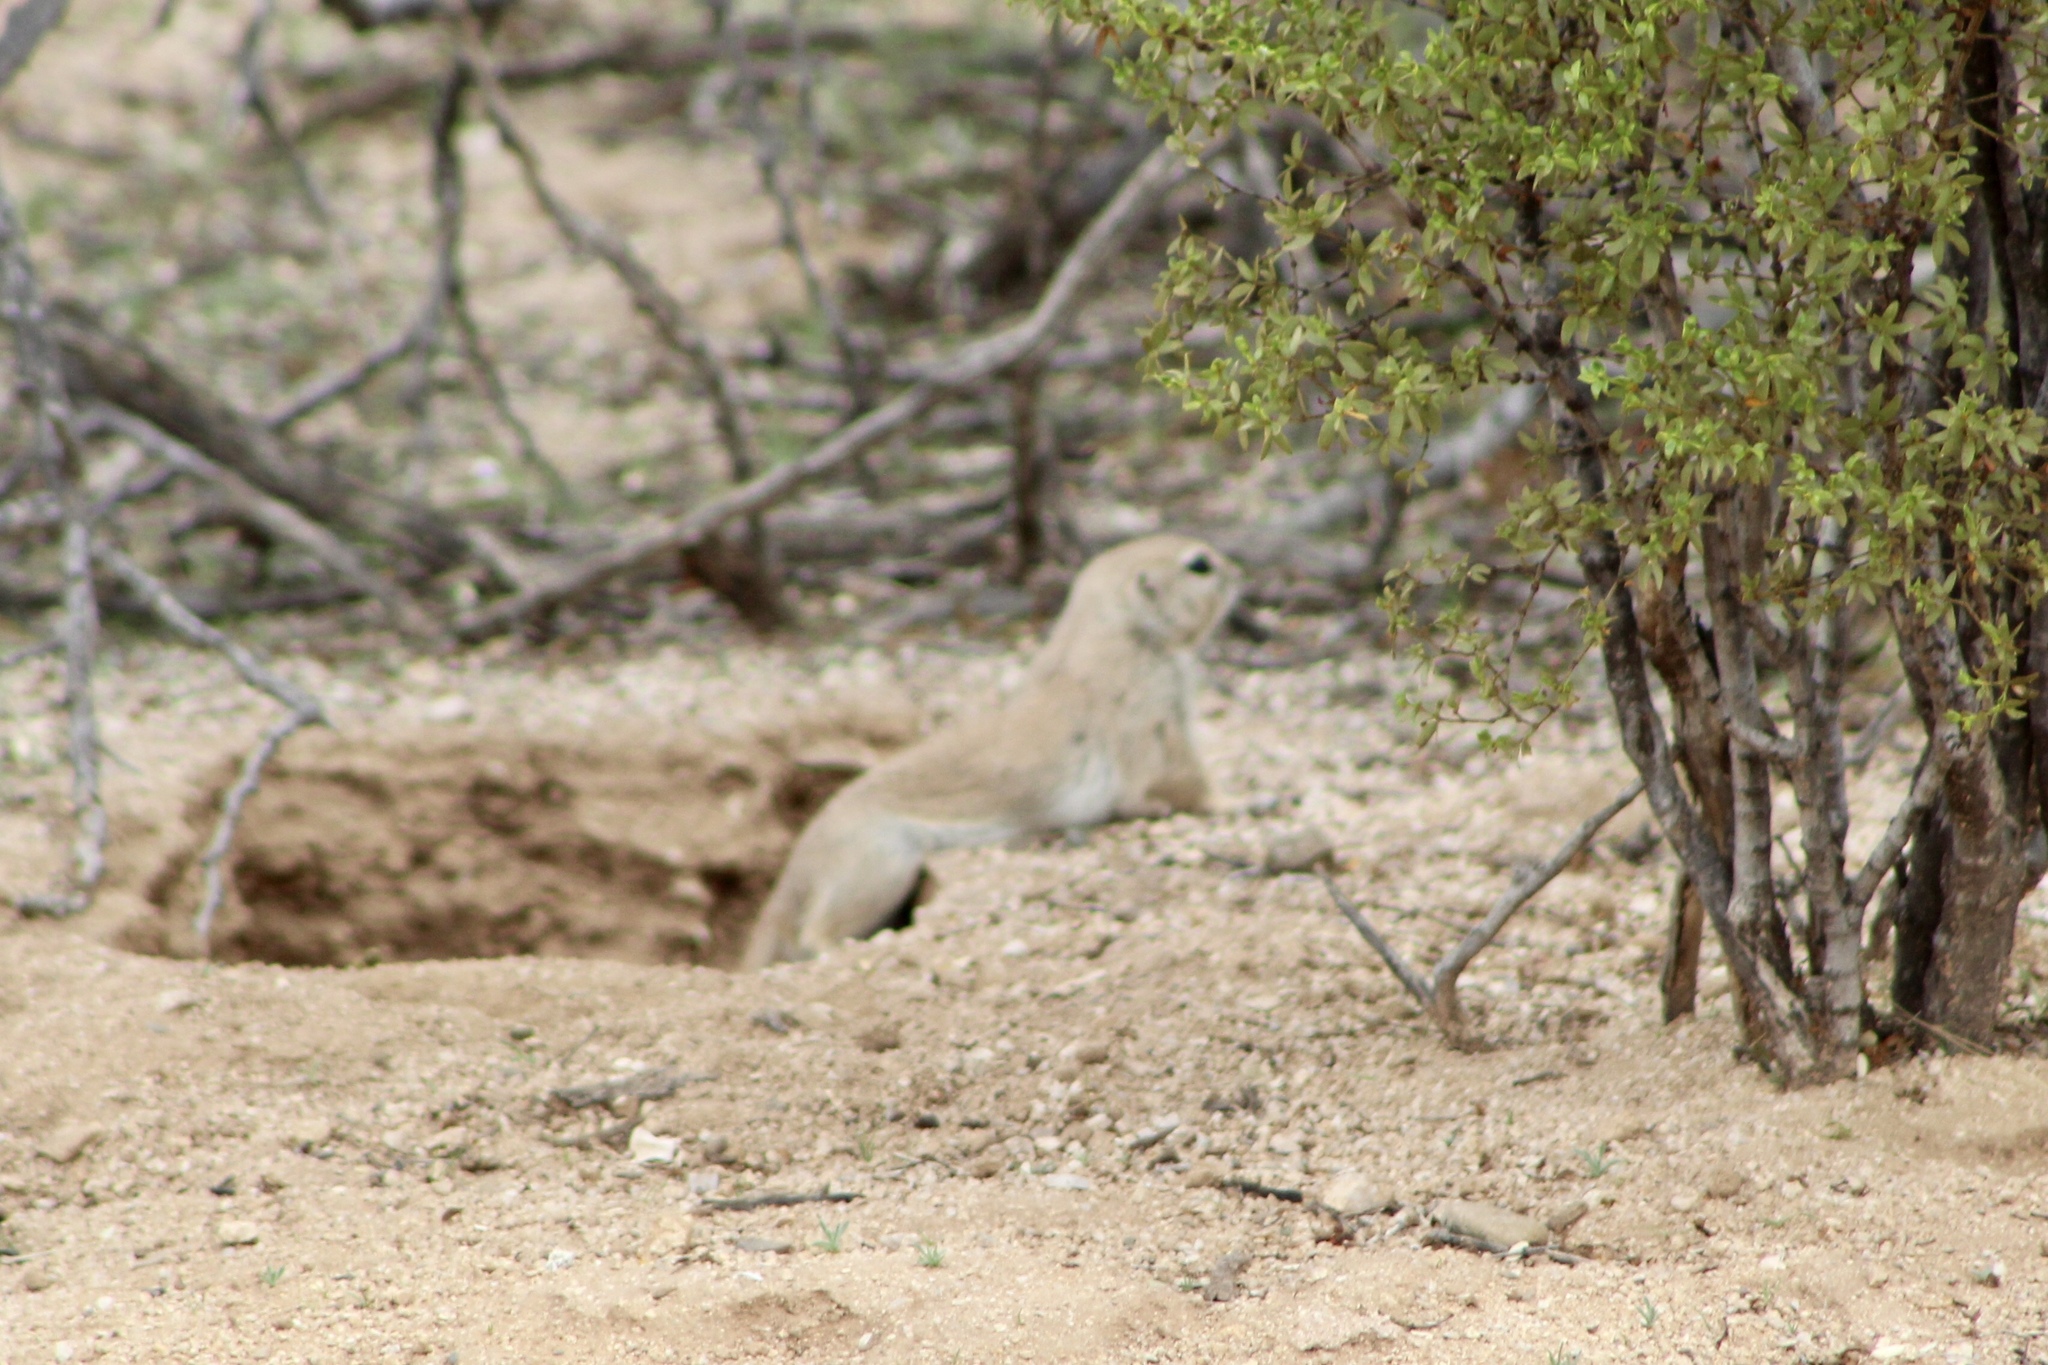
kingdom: Animalia
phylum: Chordata
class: Mammalia
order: Rodentia
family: Sciuridae
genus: Xerospermophilus
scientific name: Xerospermophilus tereticaudus
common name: Round-tailed ground squirrel
